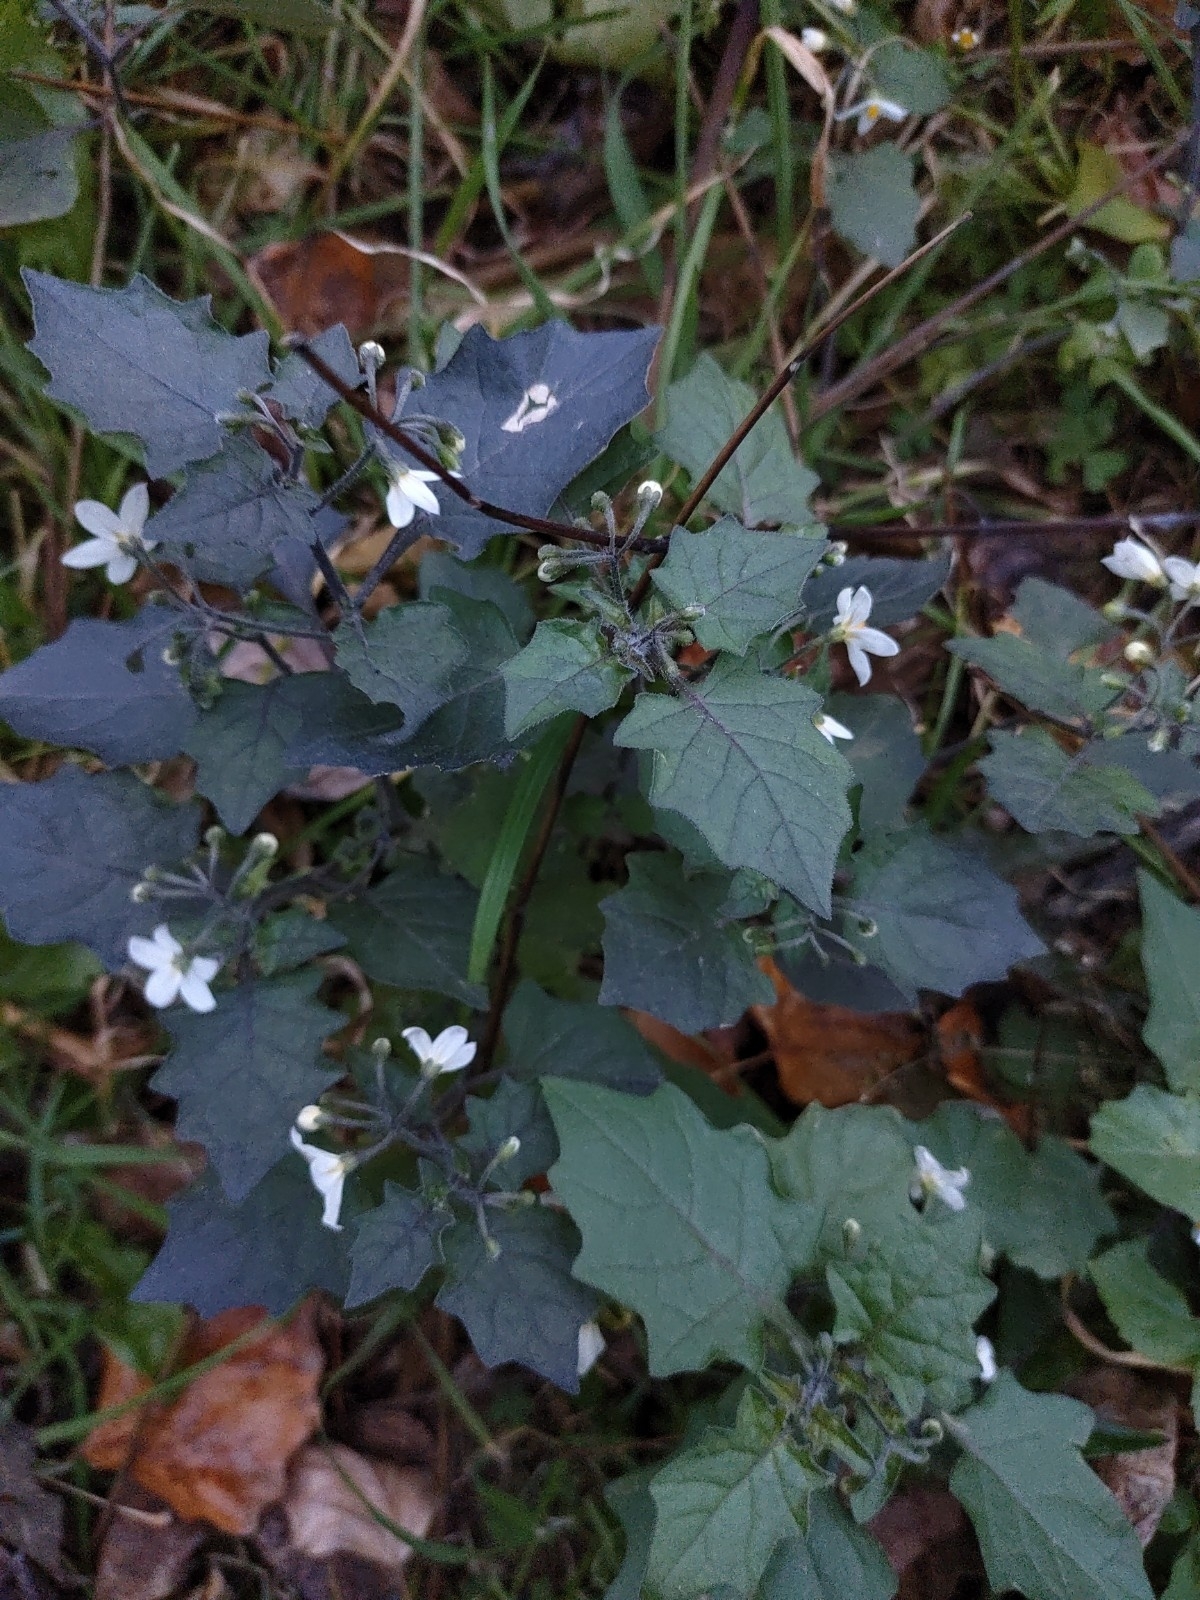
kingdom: Plantae
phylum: Tracheophyta
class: Magnoliopsida
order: Solanales
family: Solanaceae
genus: Solanum
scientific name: Solanum nigrum
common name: Black nightshade
